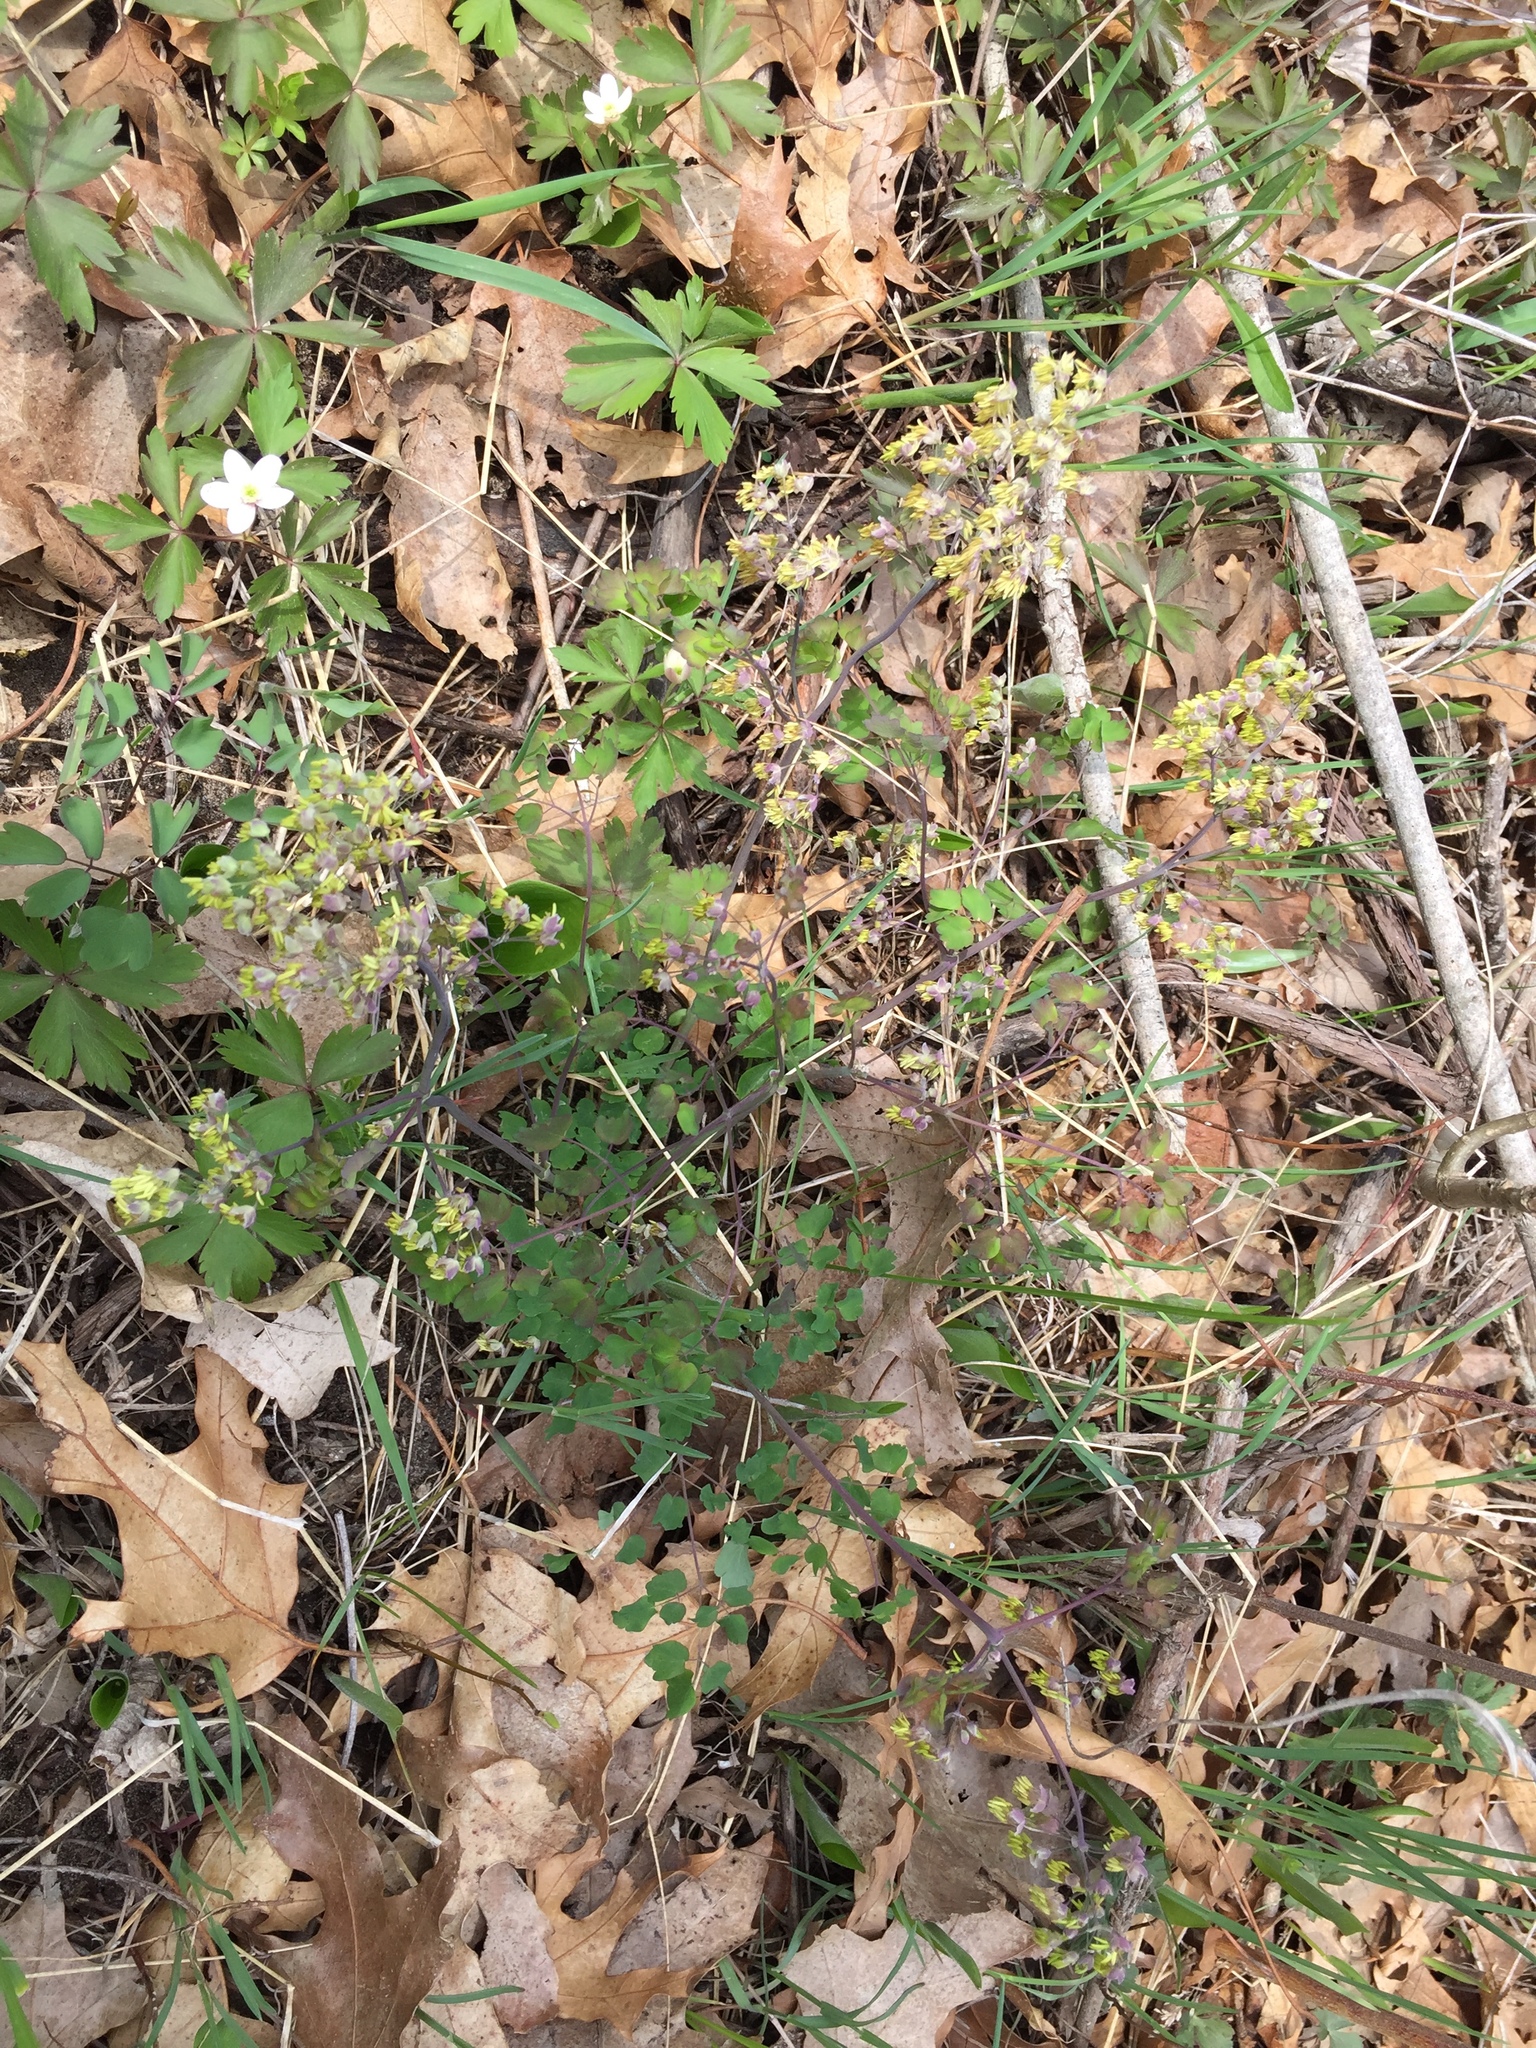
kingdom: Plantae
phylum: Tracheophyta
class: Magnoliopsida
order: Ranunculales
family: Ranunculaceae
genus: Thalictrum
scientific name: Thalictrum dioicum
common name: Early meadow-rue
